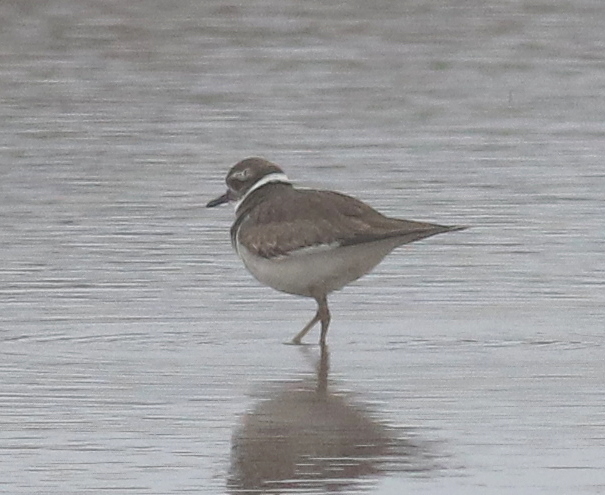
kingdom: Animalia
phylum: Chordata
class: Aves
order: Charadriiformes
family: Charadriidae
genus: Charadrius
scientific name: Charadrius vociferus
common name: Killdeer
